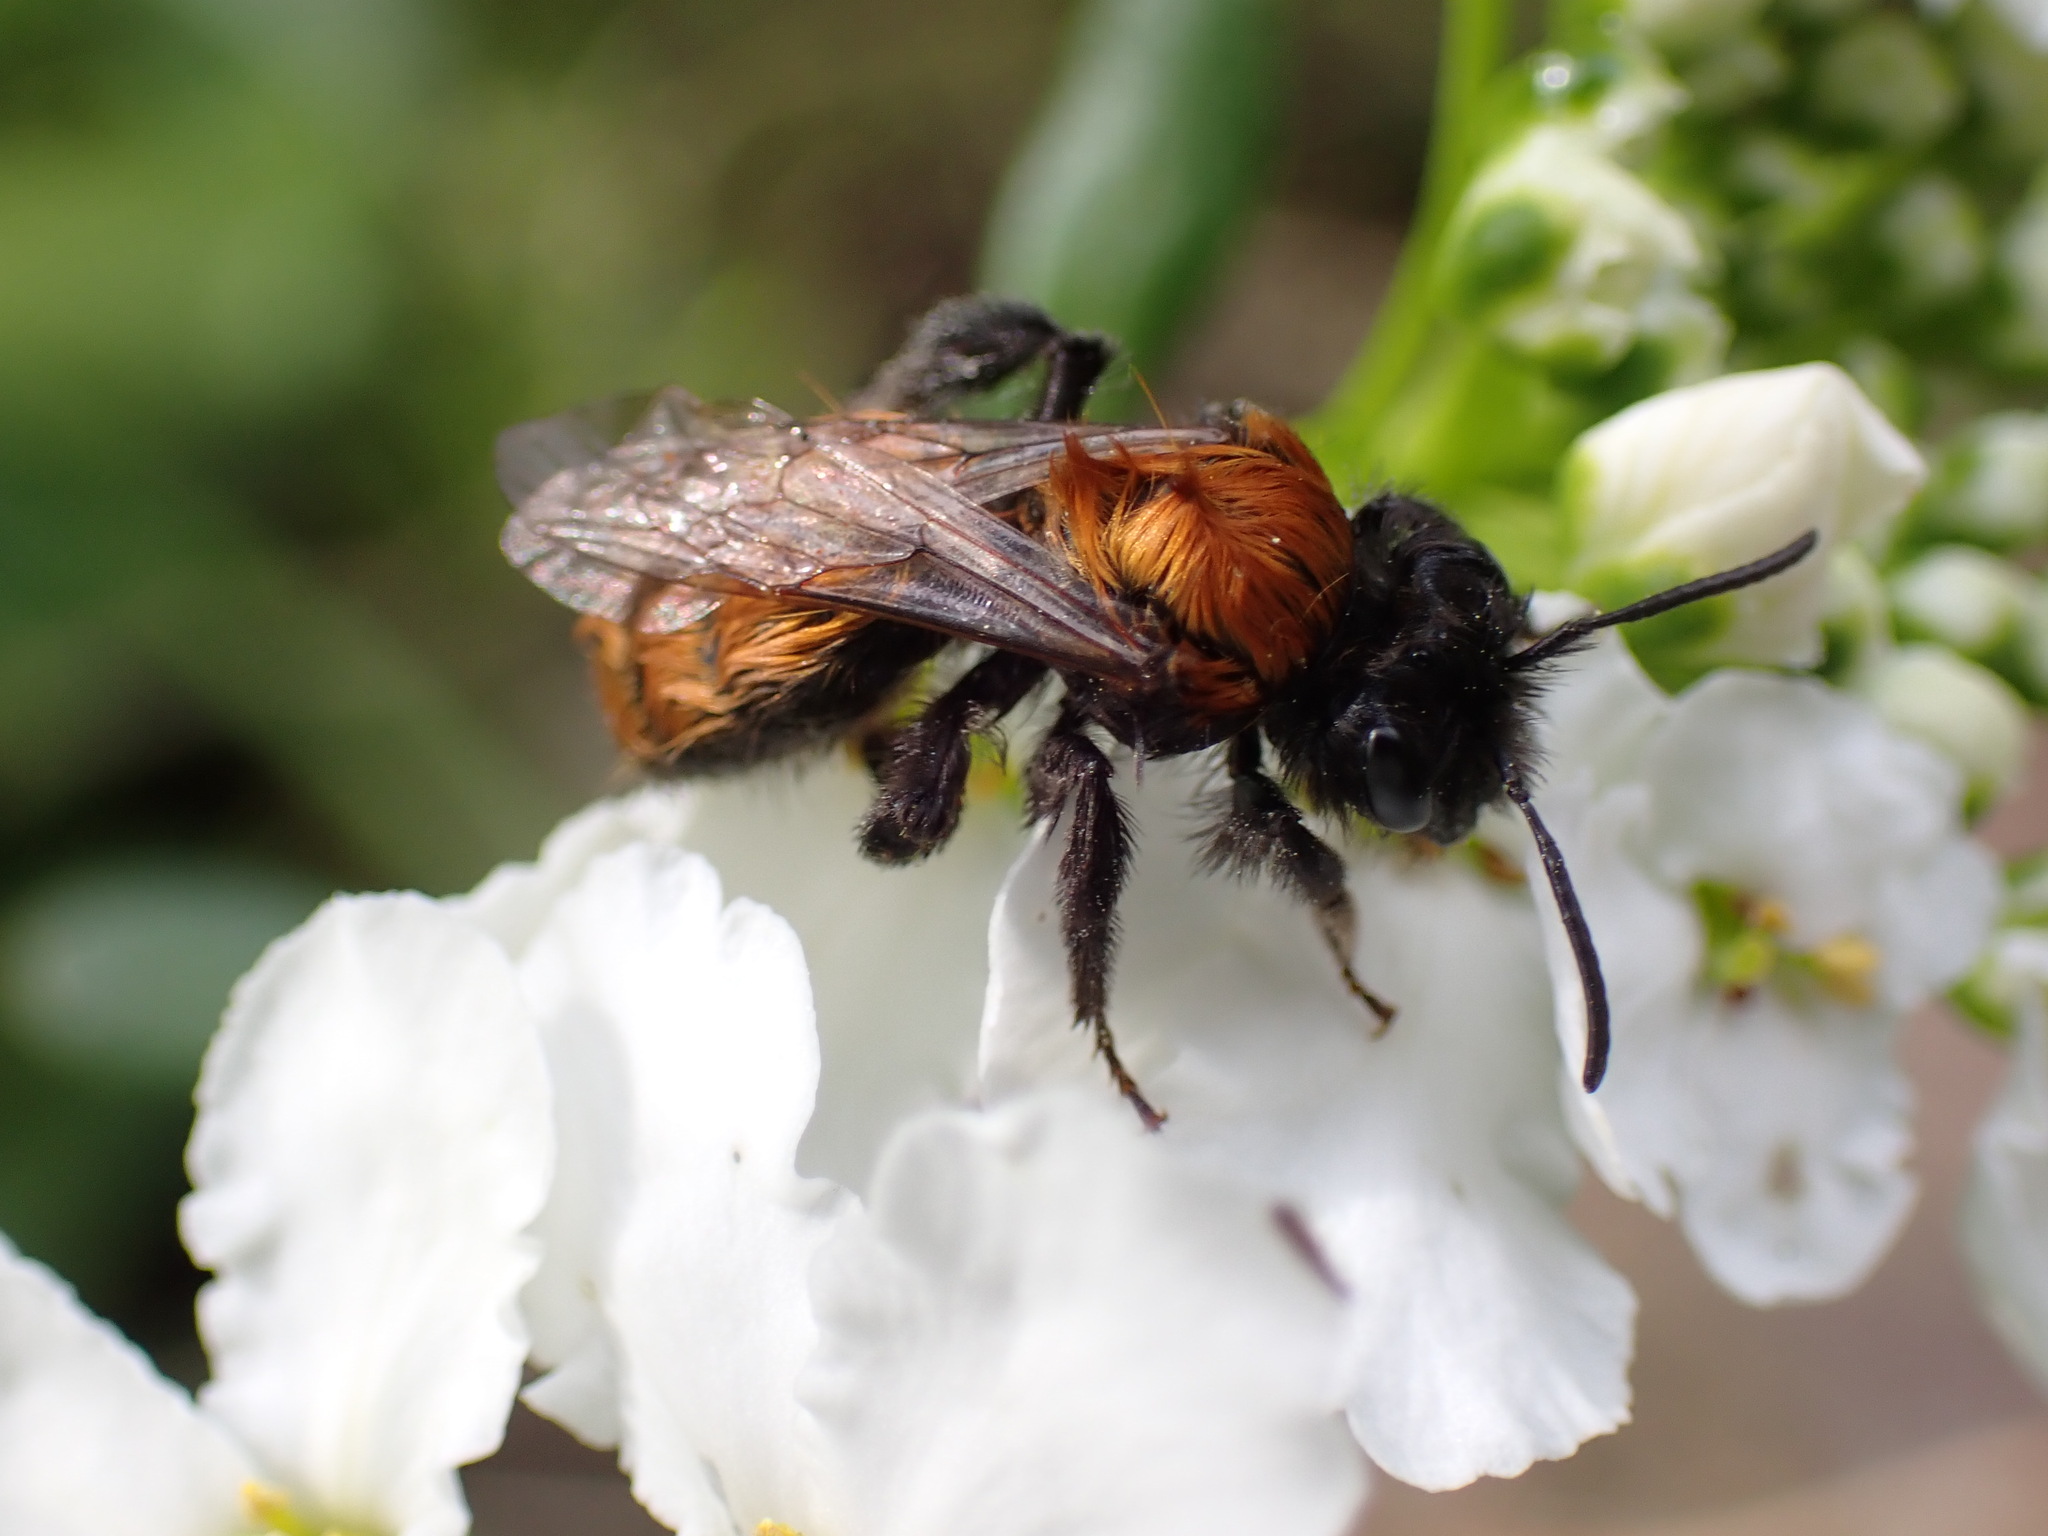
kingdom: Animalia
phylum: Arthropoda
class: Insecta
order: Hymenoptera
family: Andrenidae
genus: Andrena
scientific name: Andrena fulva
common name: Tawny mining bee
